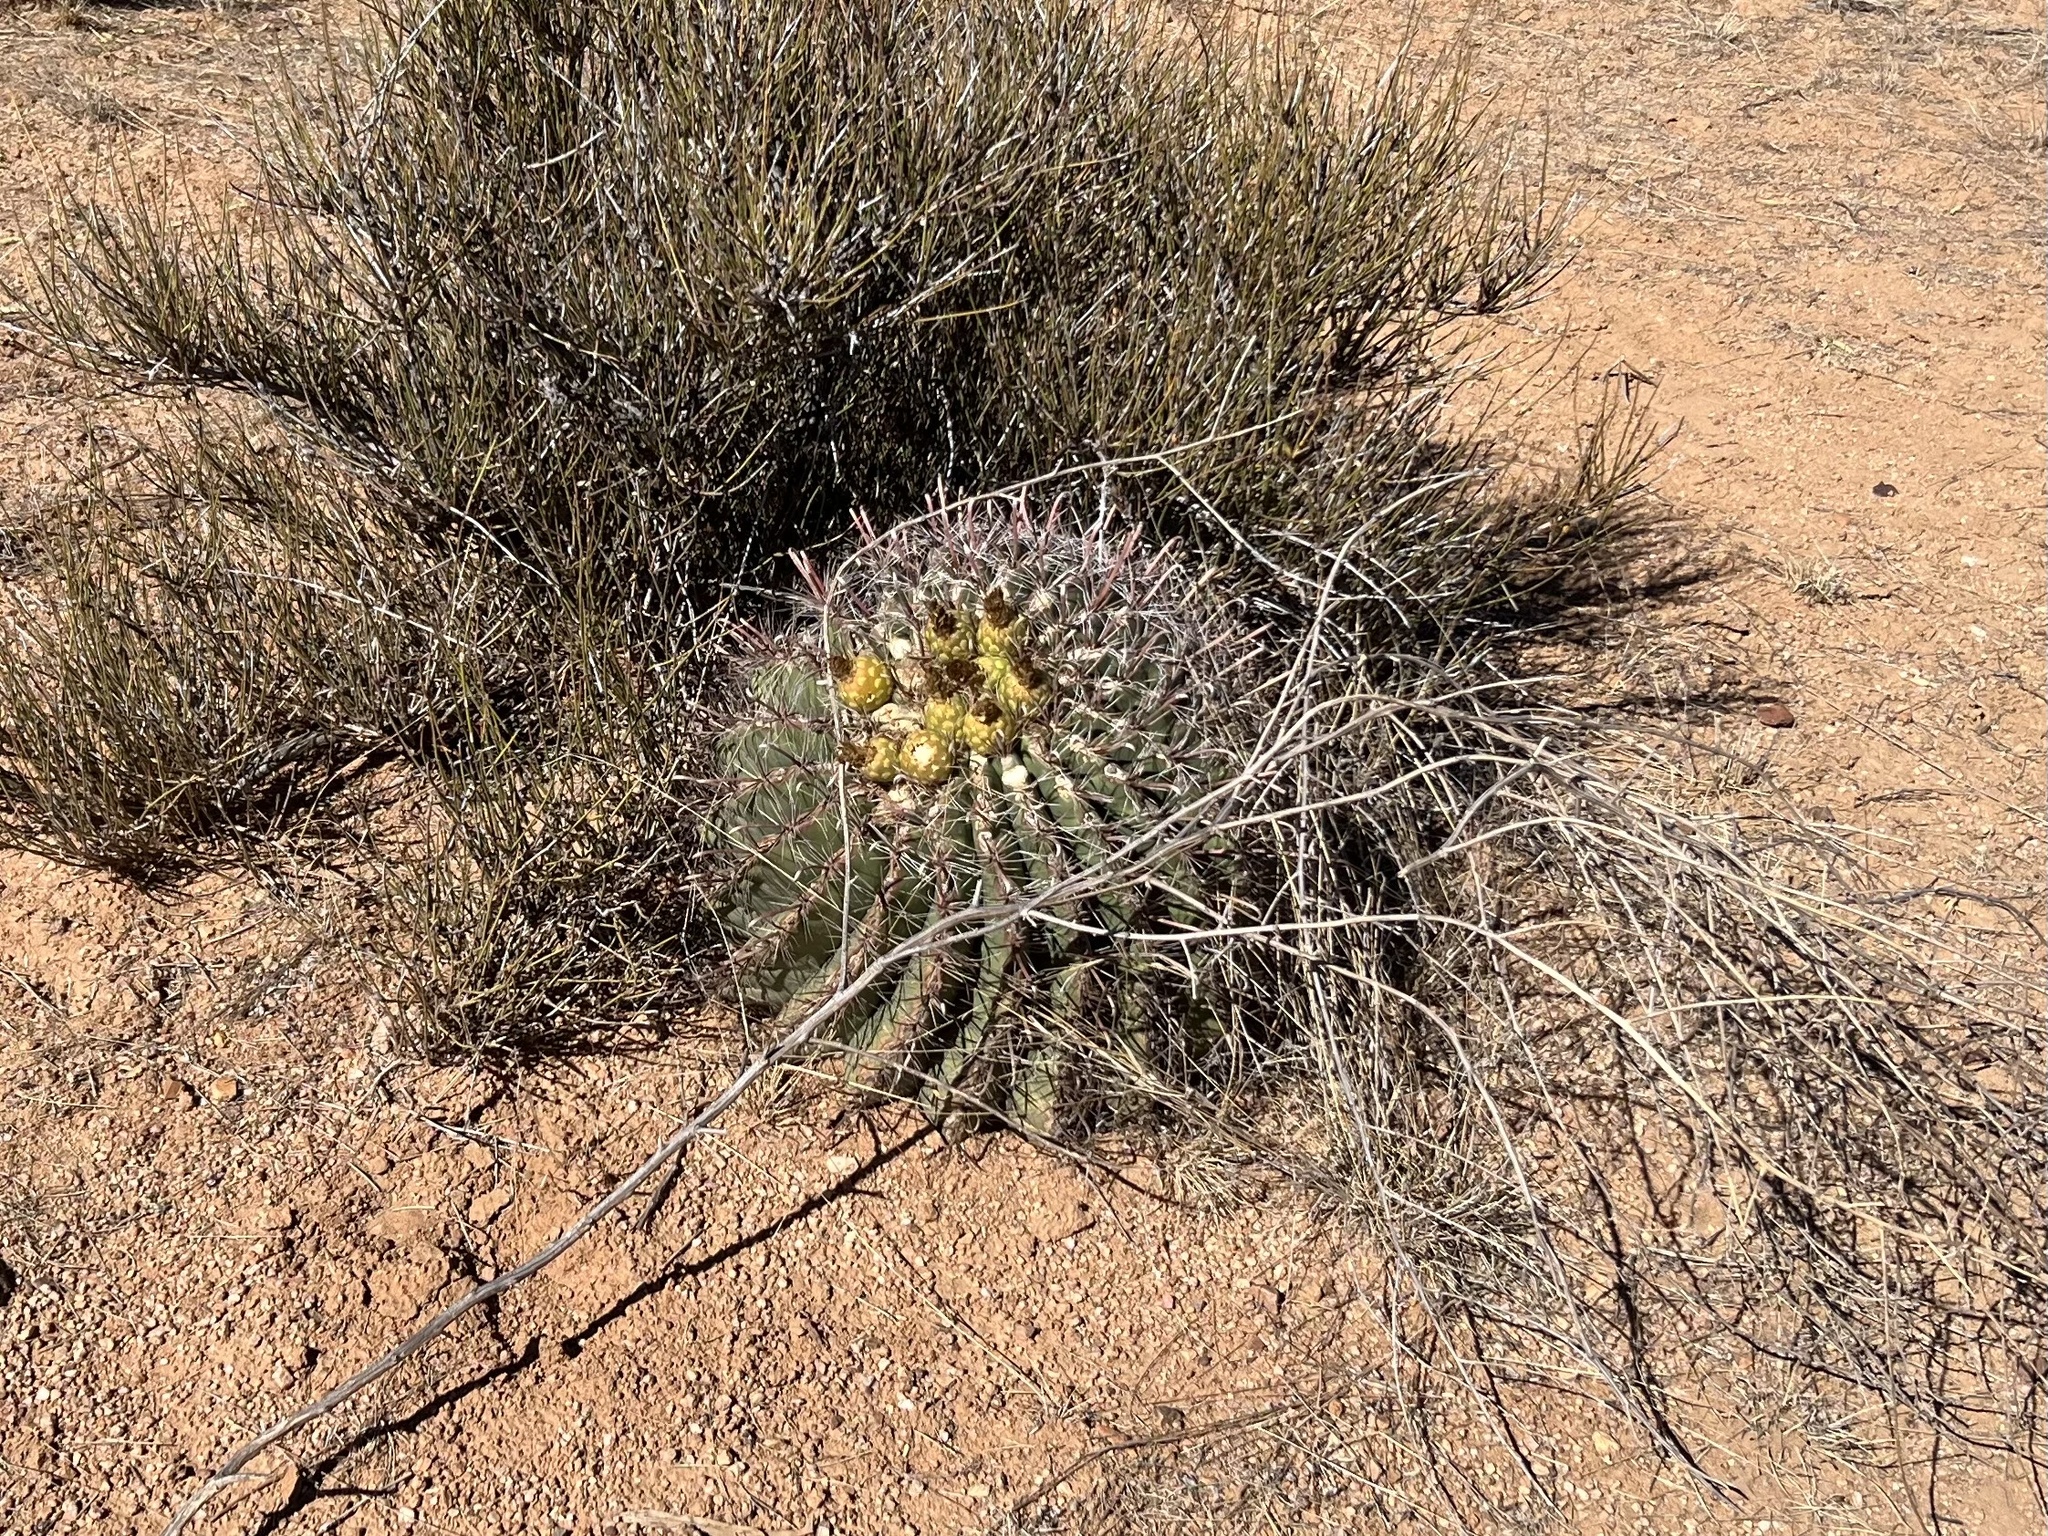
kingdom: Plantae
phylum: Tracheophyta
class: Magnoliopsida
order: Caryophyllales
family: Cactaceae
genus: Ferocactus
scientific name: Ferocactus wislizeni
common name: Candy barrel cactus
